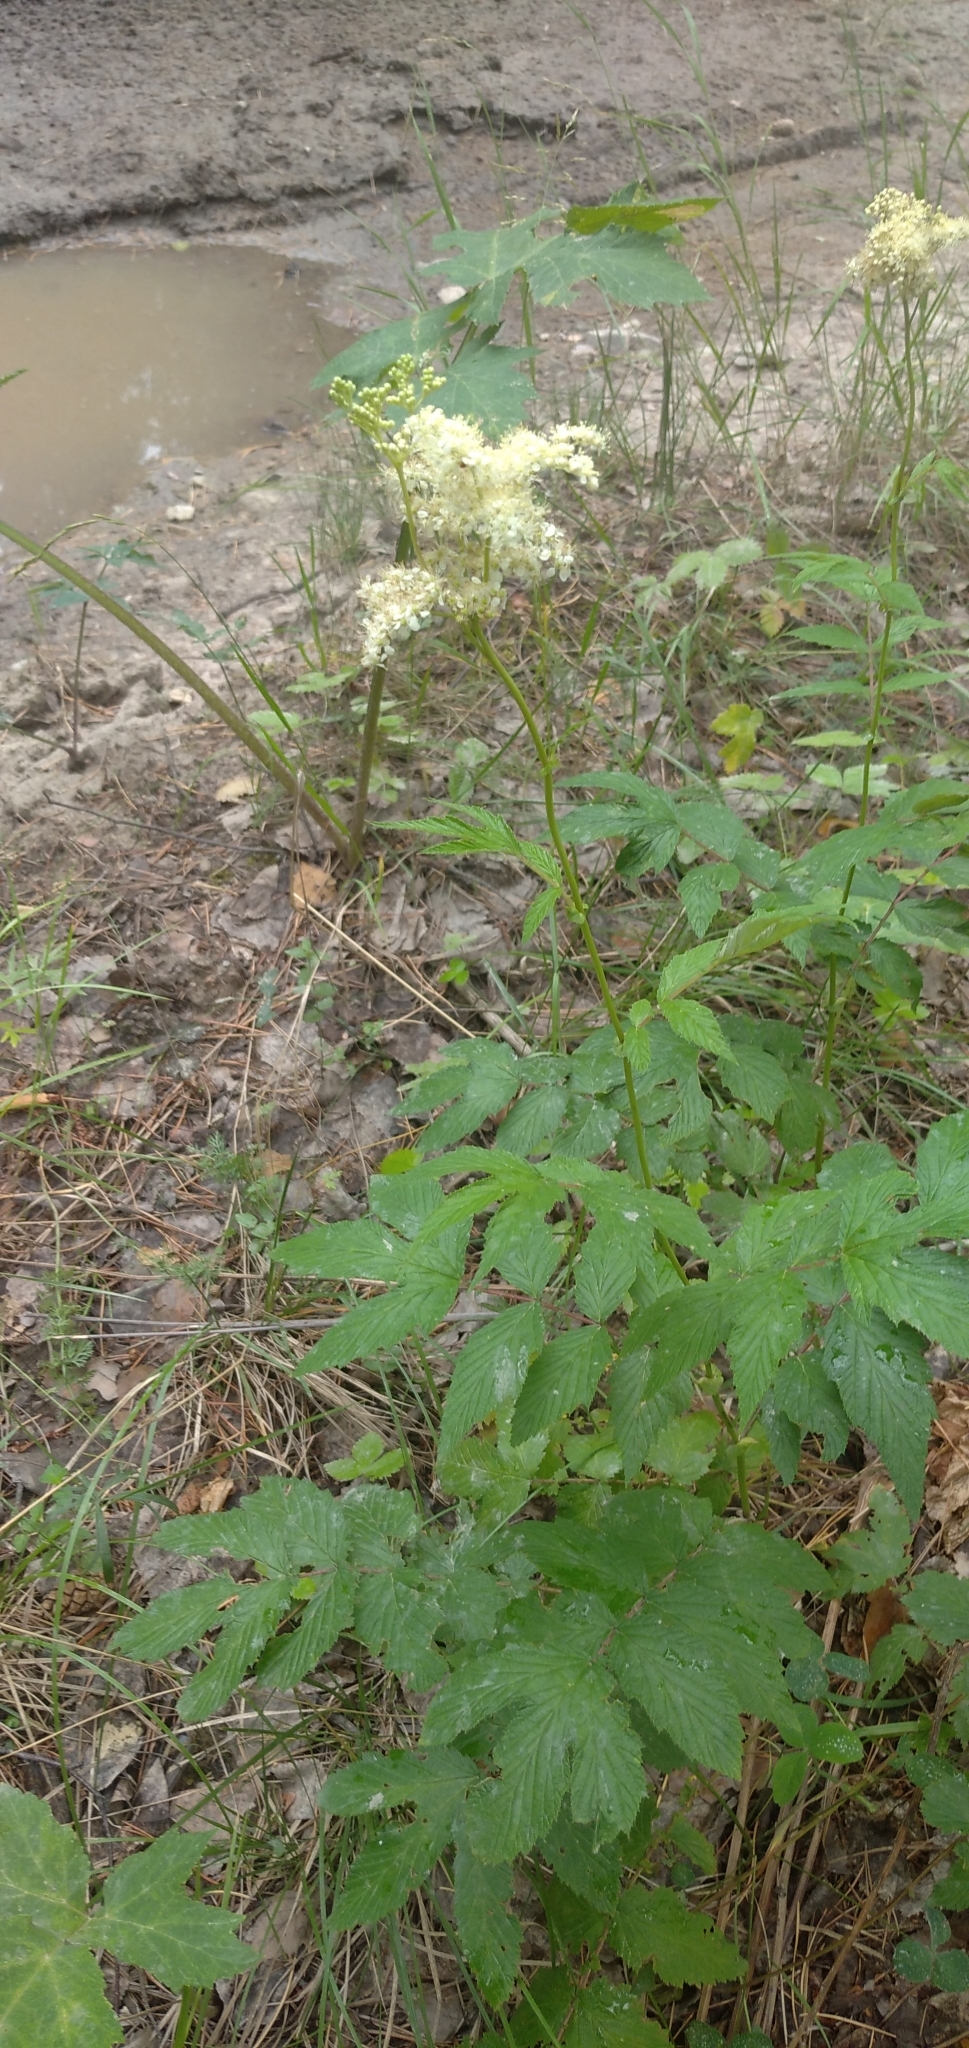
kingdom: Plantae
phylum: Tracheophyta
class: Magnoliopsida
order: Rosales
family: Rosaceae
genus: Filipendula
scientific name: Filipendula ulmaria
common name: Meadowsweet
